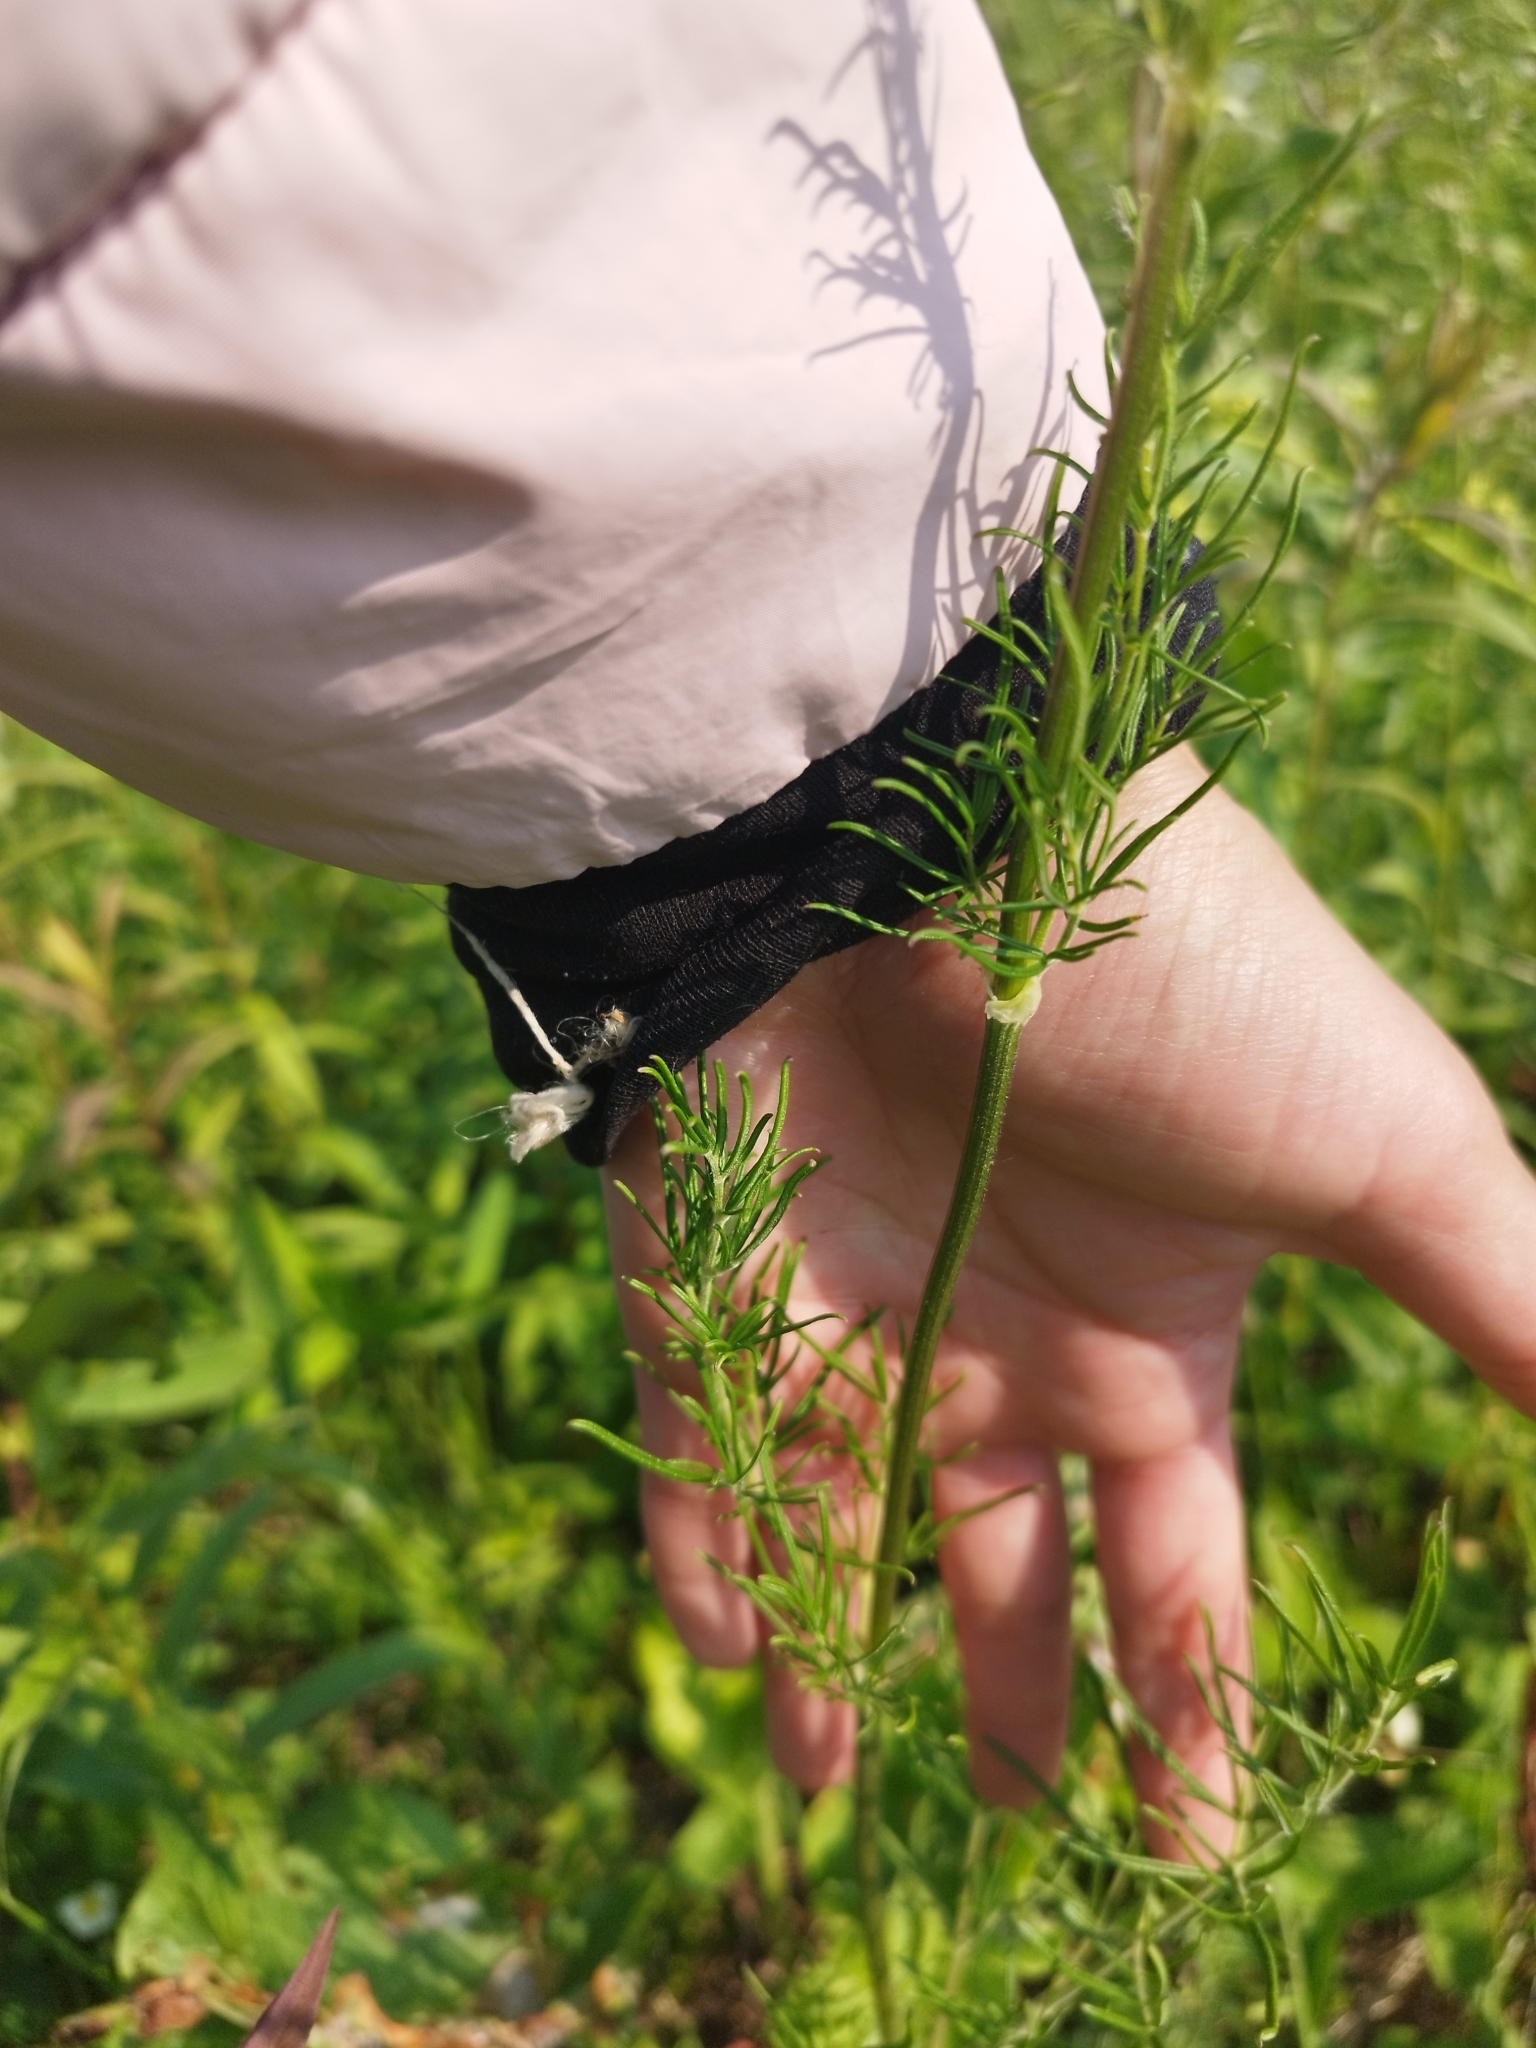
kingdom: Plantae
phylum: Tracheophyta
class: Magnoliopsida
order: Ranunculales
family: Ranunculaceae
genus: Thalictrum
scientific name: Thalictrum lucidum
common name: Shining meadow-rue
